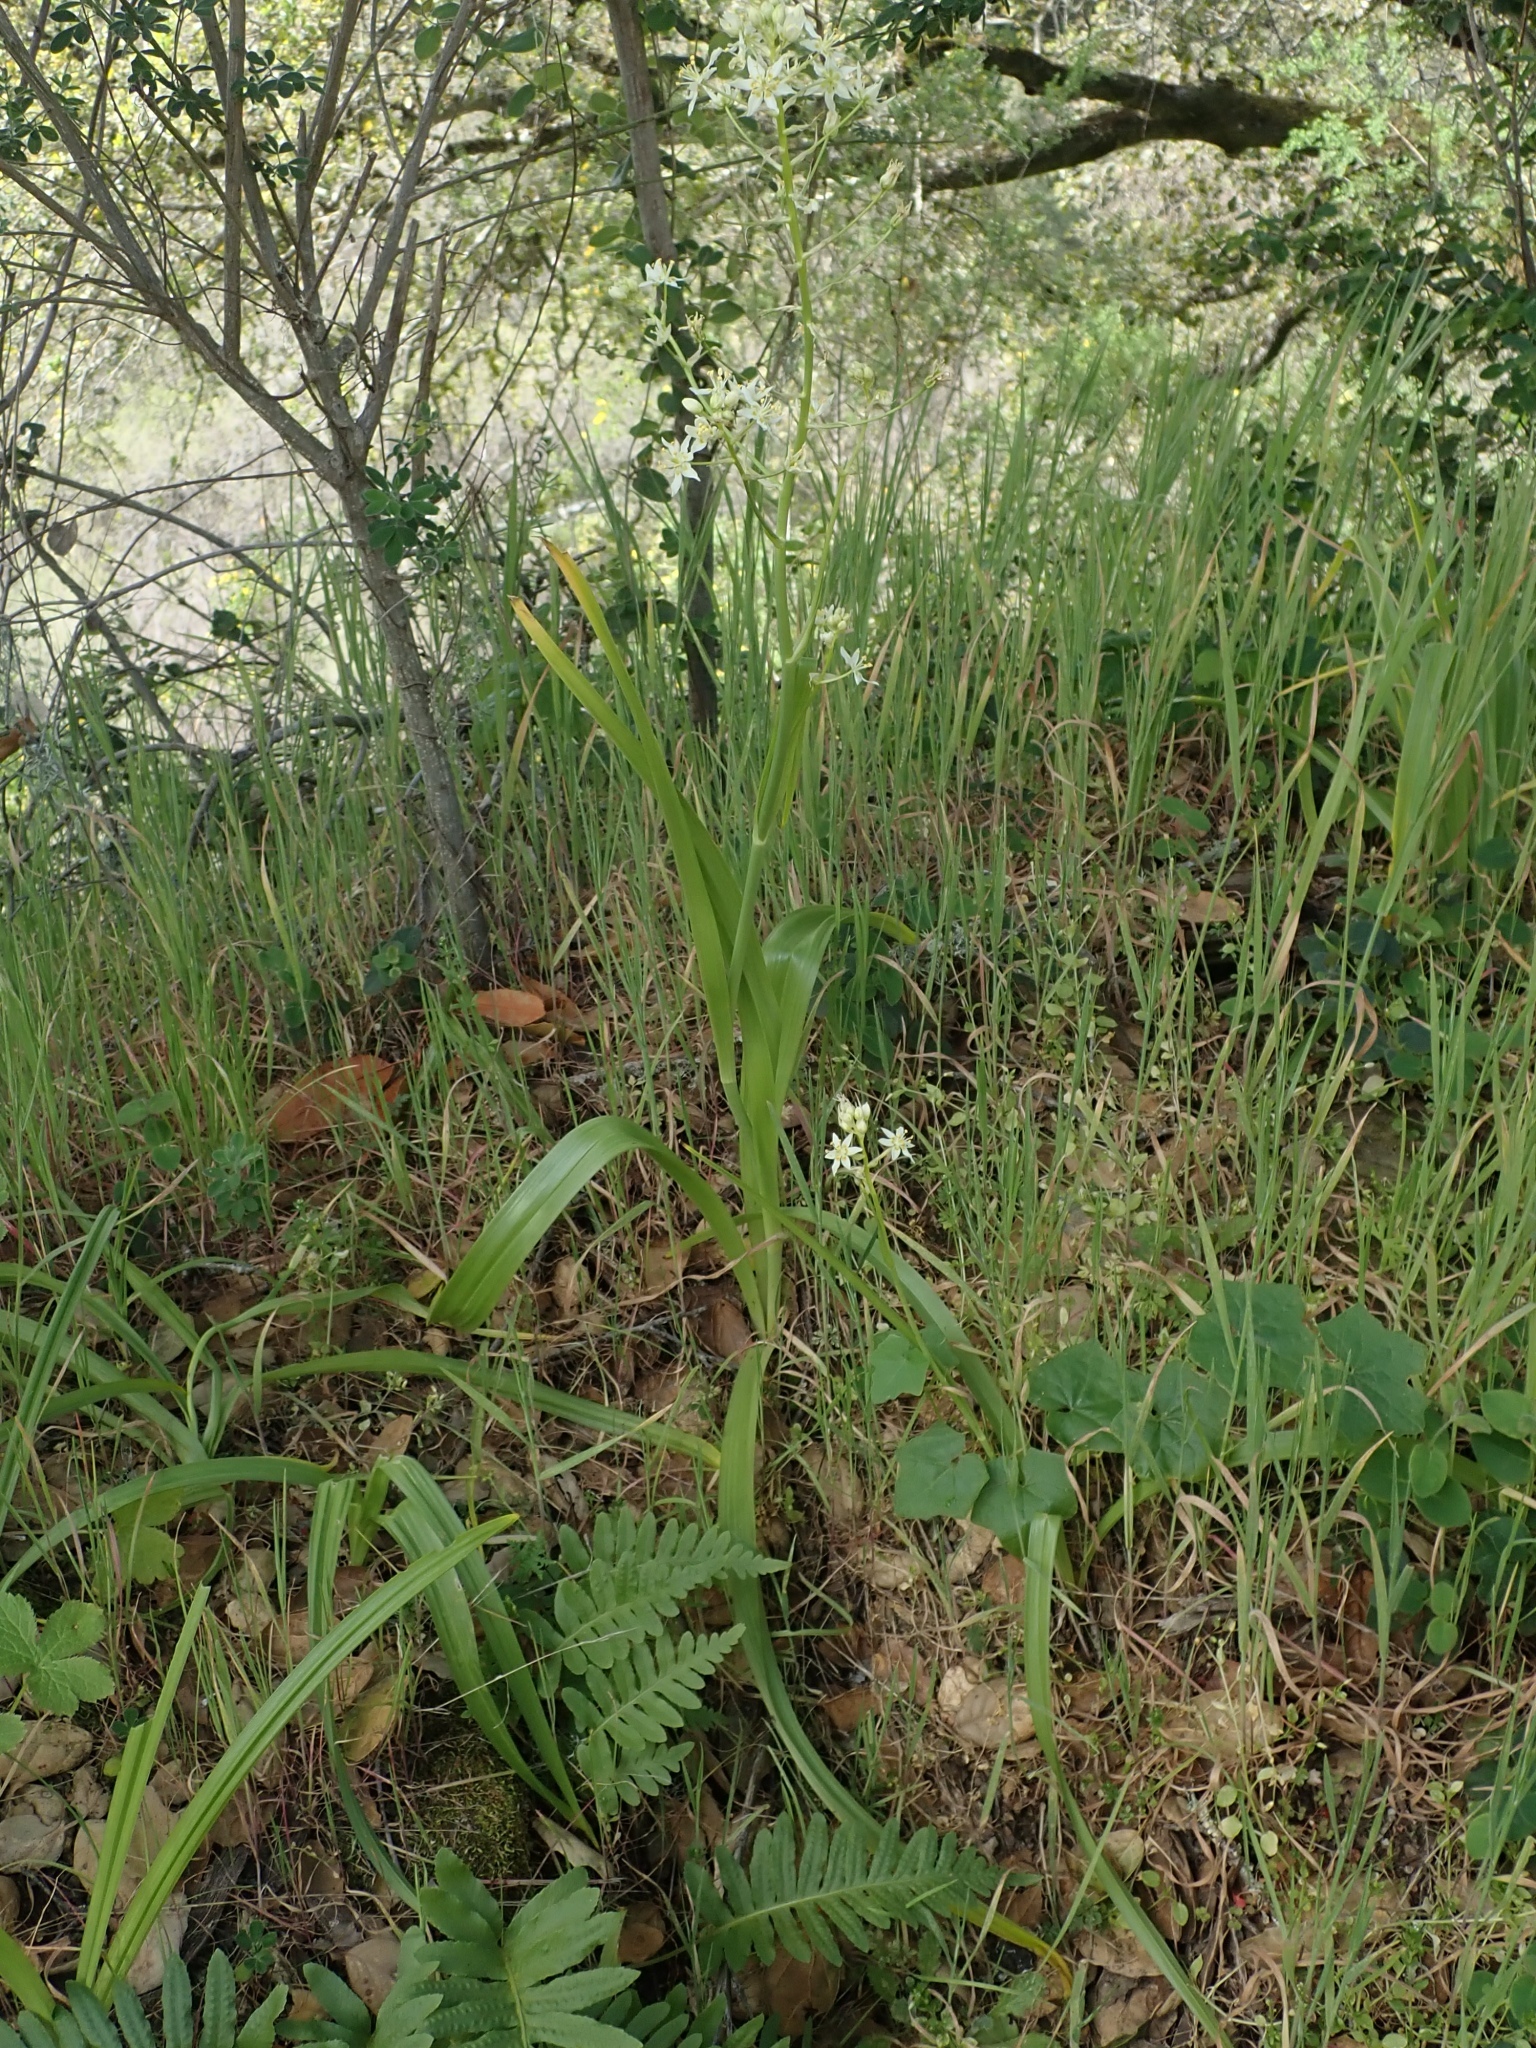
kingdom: Plantae
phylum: Tracheophyta
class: Liliopsida
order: Liliales
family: Melanthiaceae
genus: Toxicoscordion
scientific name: Toxicoscordion fremontii
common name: Fremont's death camas
